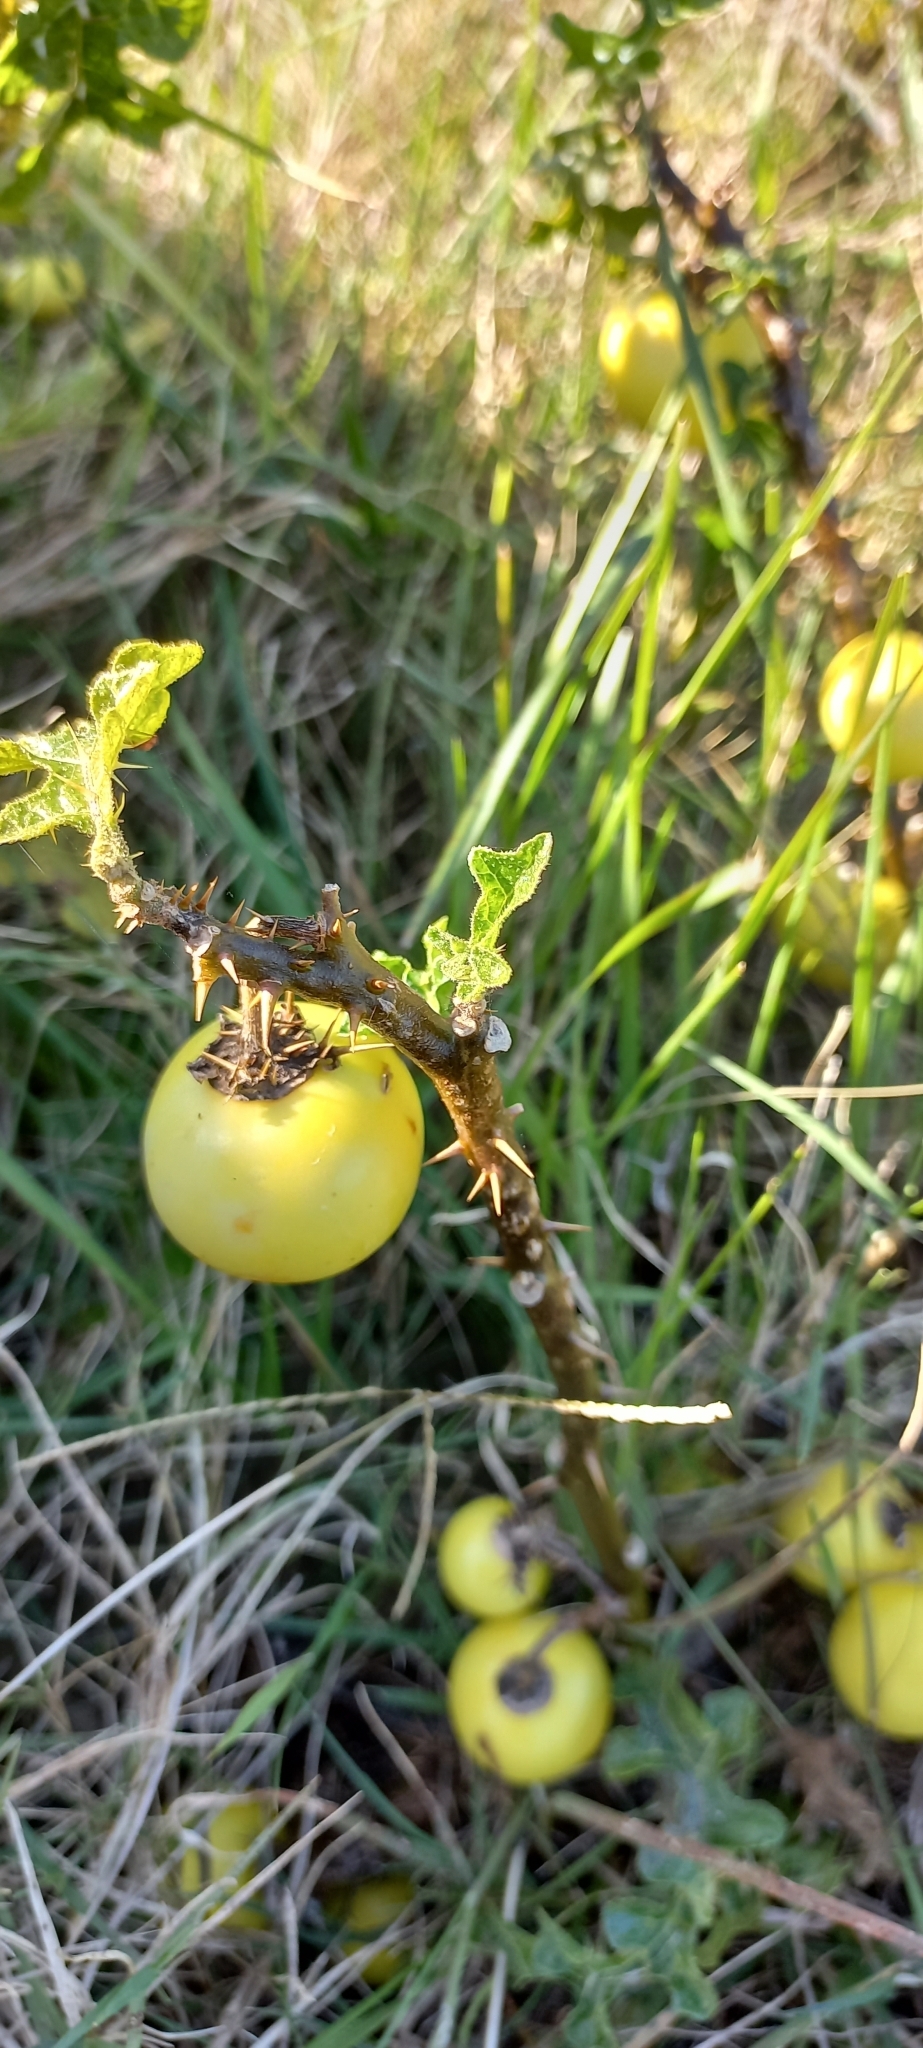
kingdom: Plantae
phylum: Tracheophyta
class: Magnoliopsida
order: Solanales
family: Solanaceae
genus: Solanum
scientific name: Solanum linnaeanum
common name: Nightshade
